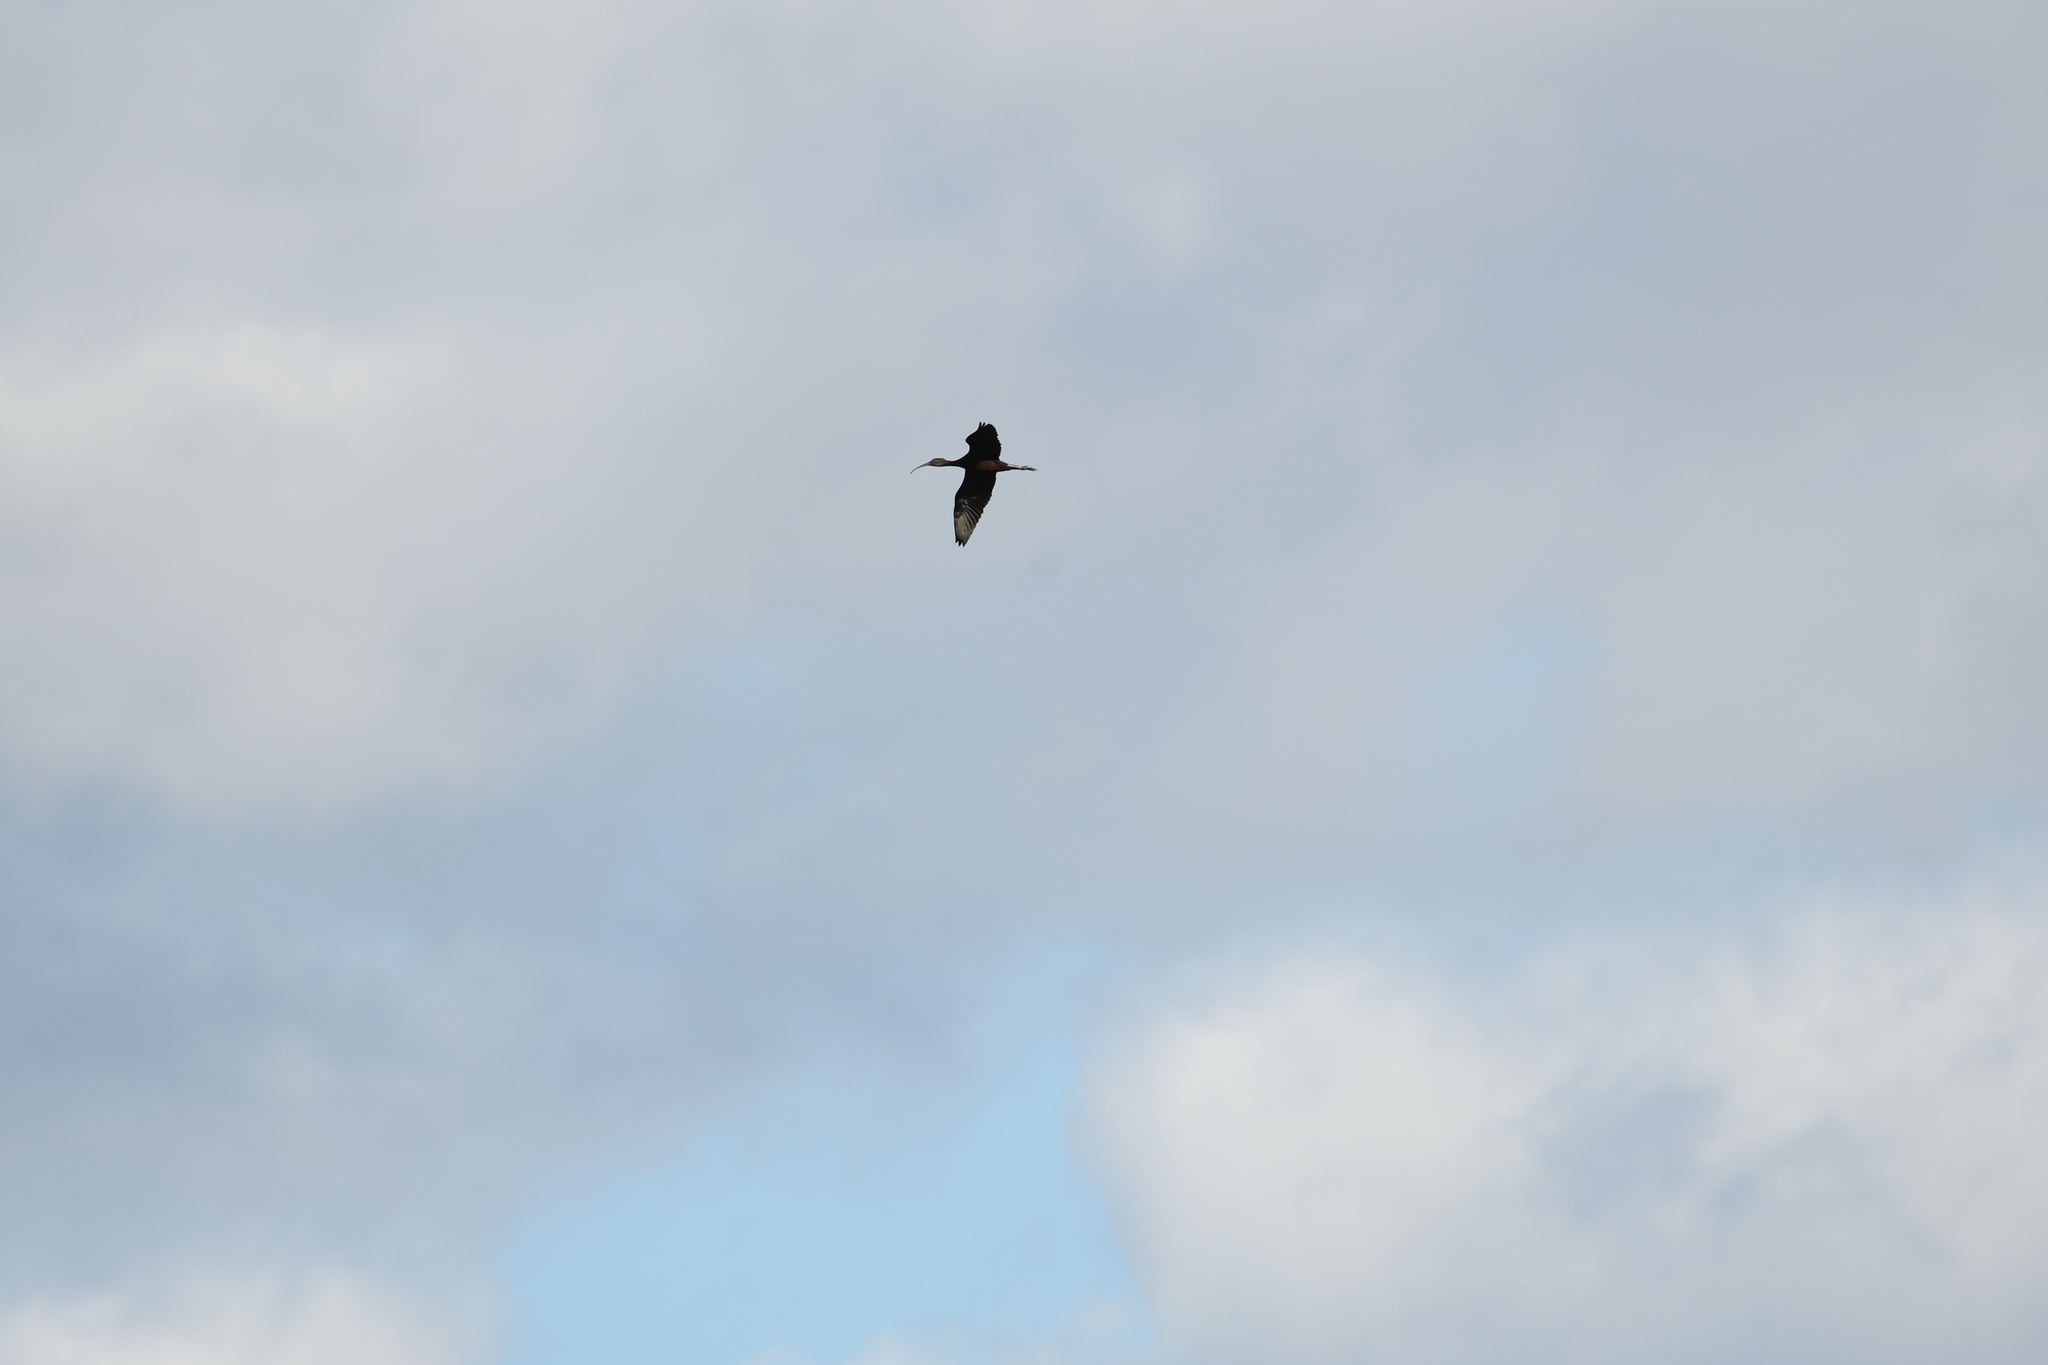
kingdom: Animalia
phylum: Chordata
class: Aves
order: Pelecaniformes
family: Threskiornithidae
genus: Plegadis
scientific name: Plegadis falcinellus
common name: Glossy ibis
